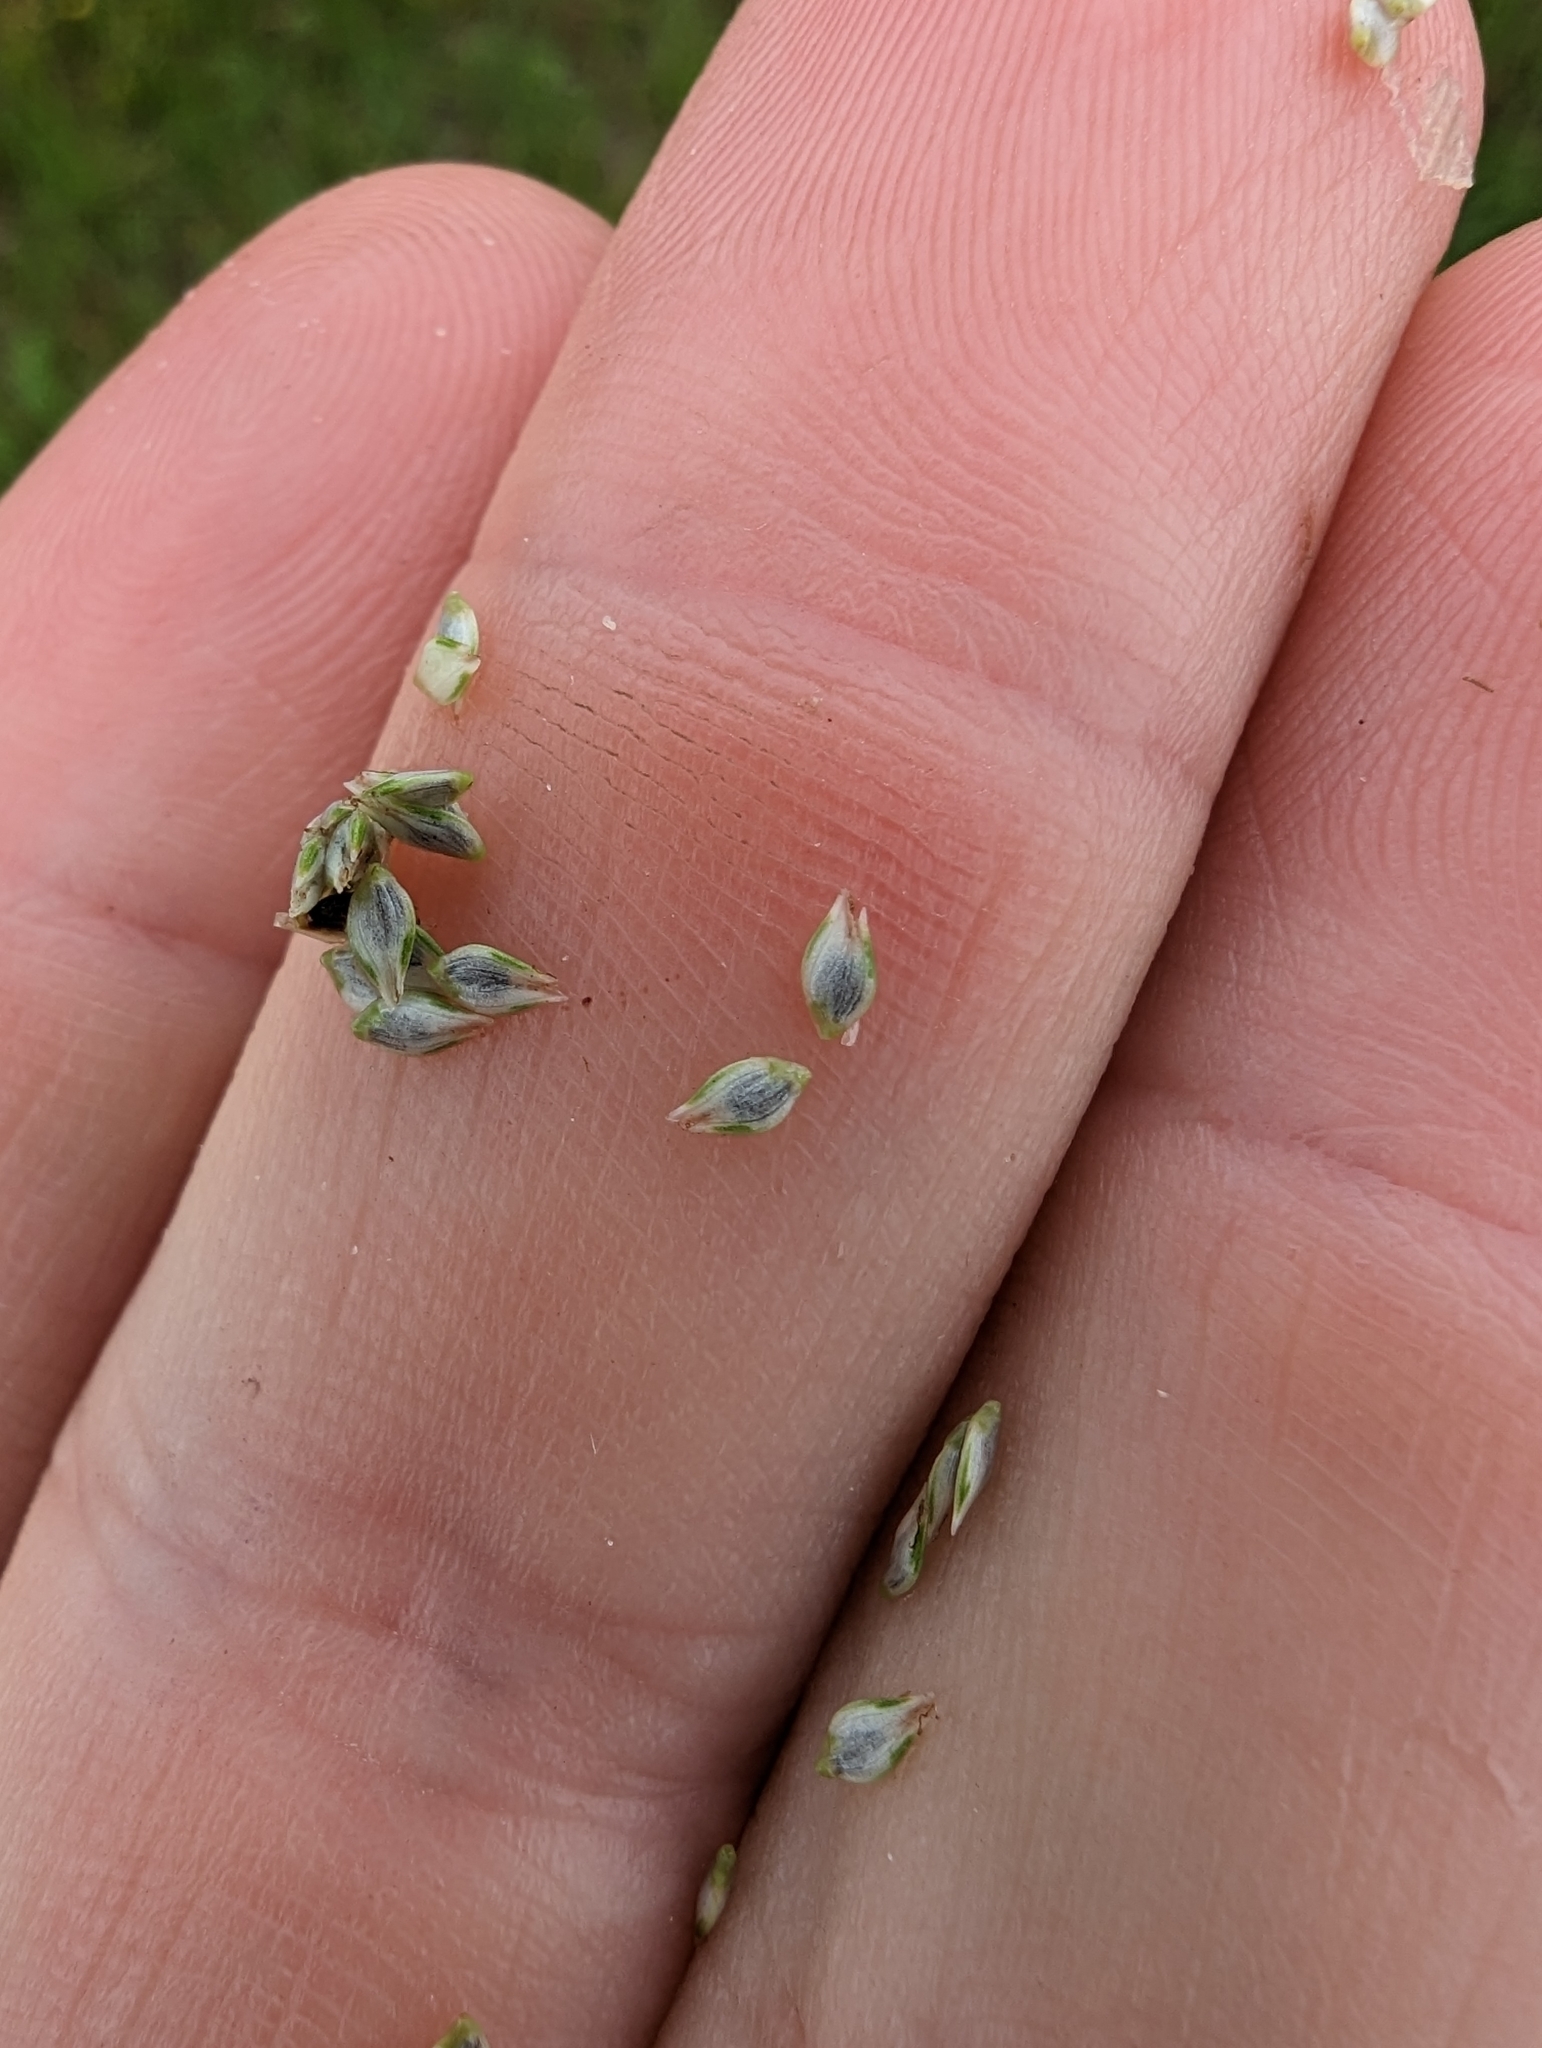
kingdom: Plantae
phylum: Tracheophyta
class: Liliopsida
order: Poales
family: Cyperaceae
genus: Cyperus
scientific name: Cyperus sesquiflorus
